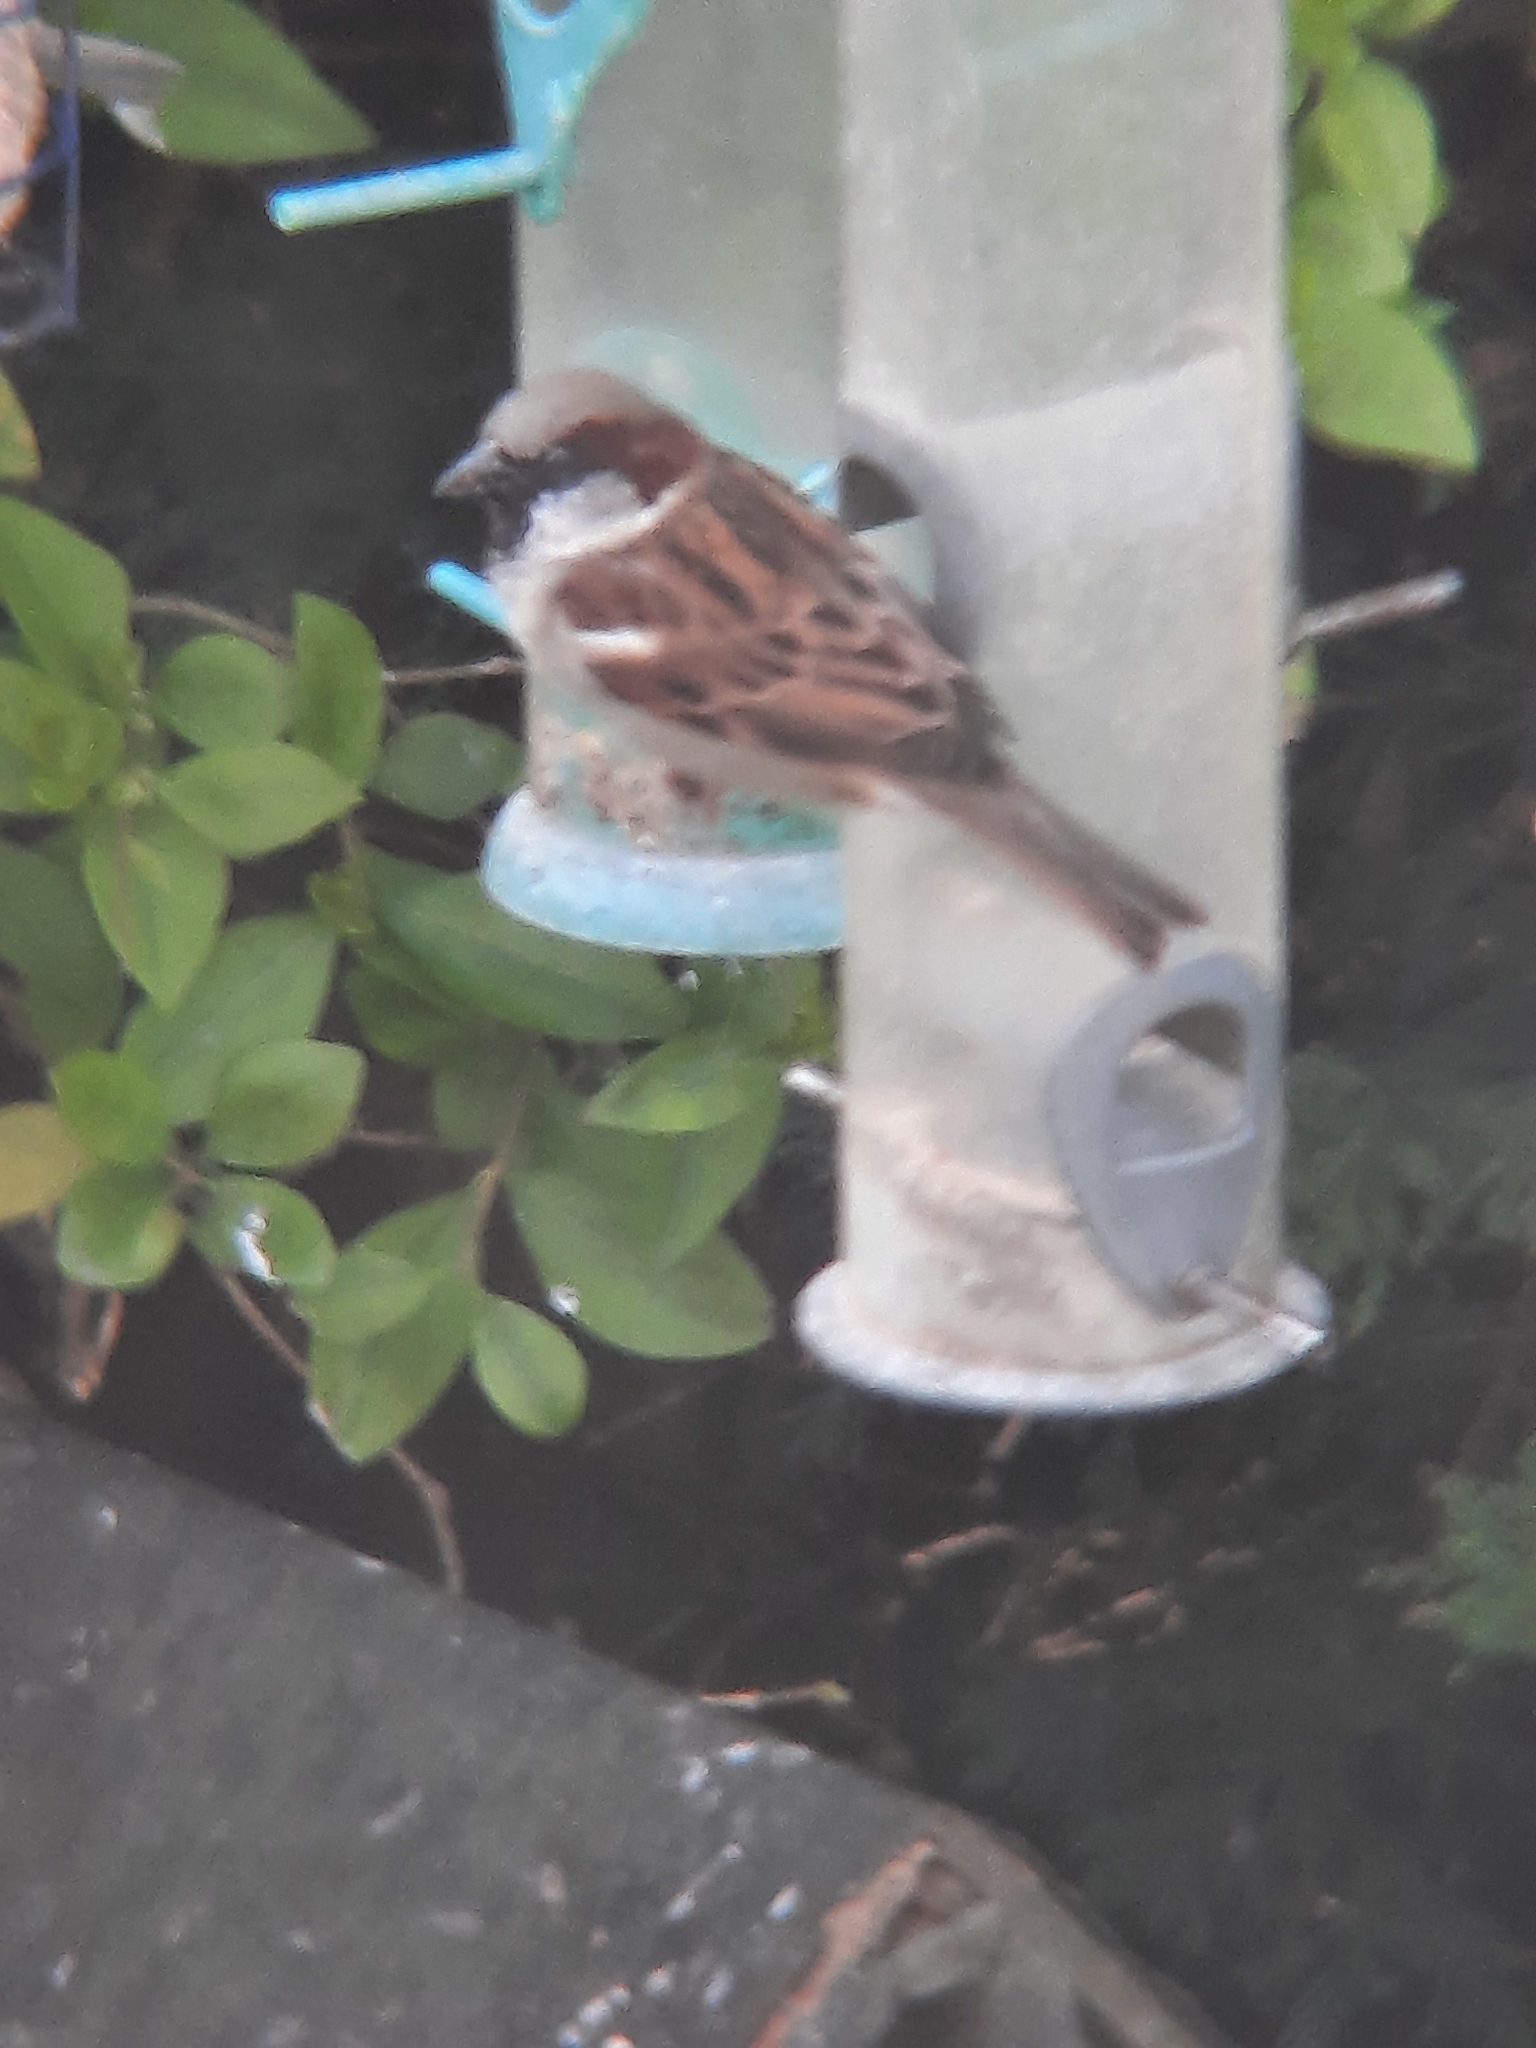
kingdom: Animalia
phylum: Chordata
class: Aves
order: Passeriformes
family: Passeridae
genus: Passer
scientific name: Passer domesticus
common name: House sparrow
